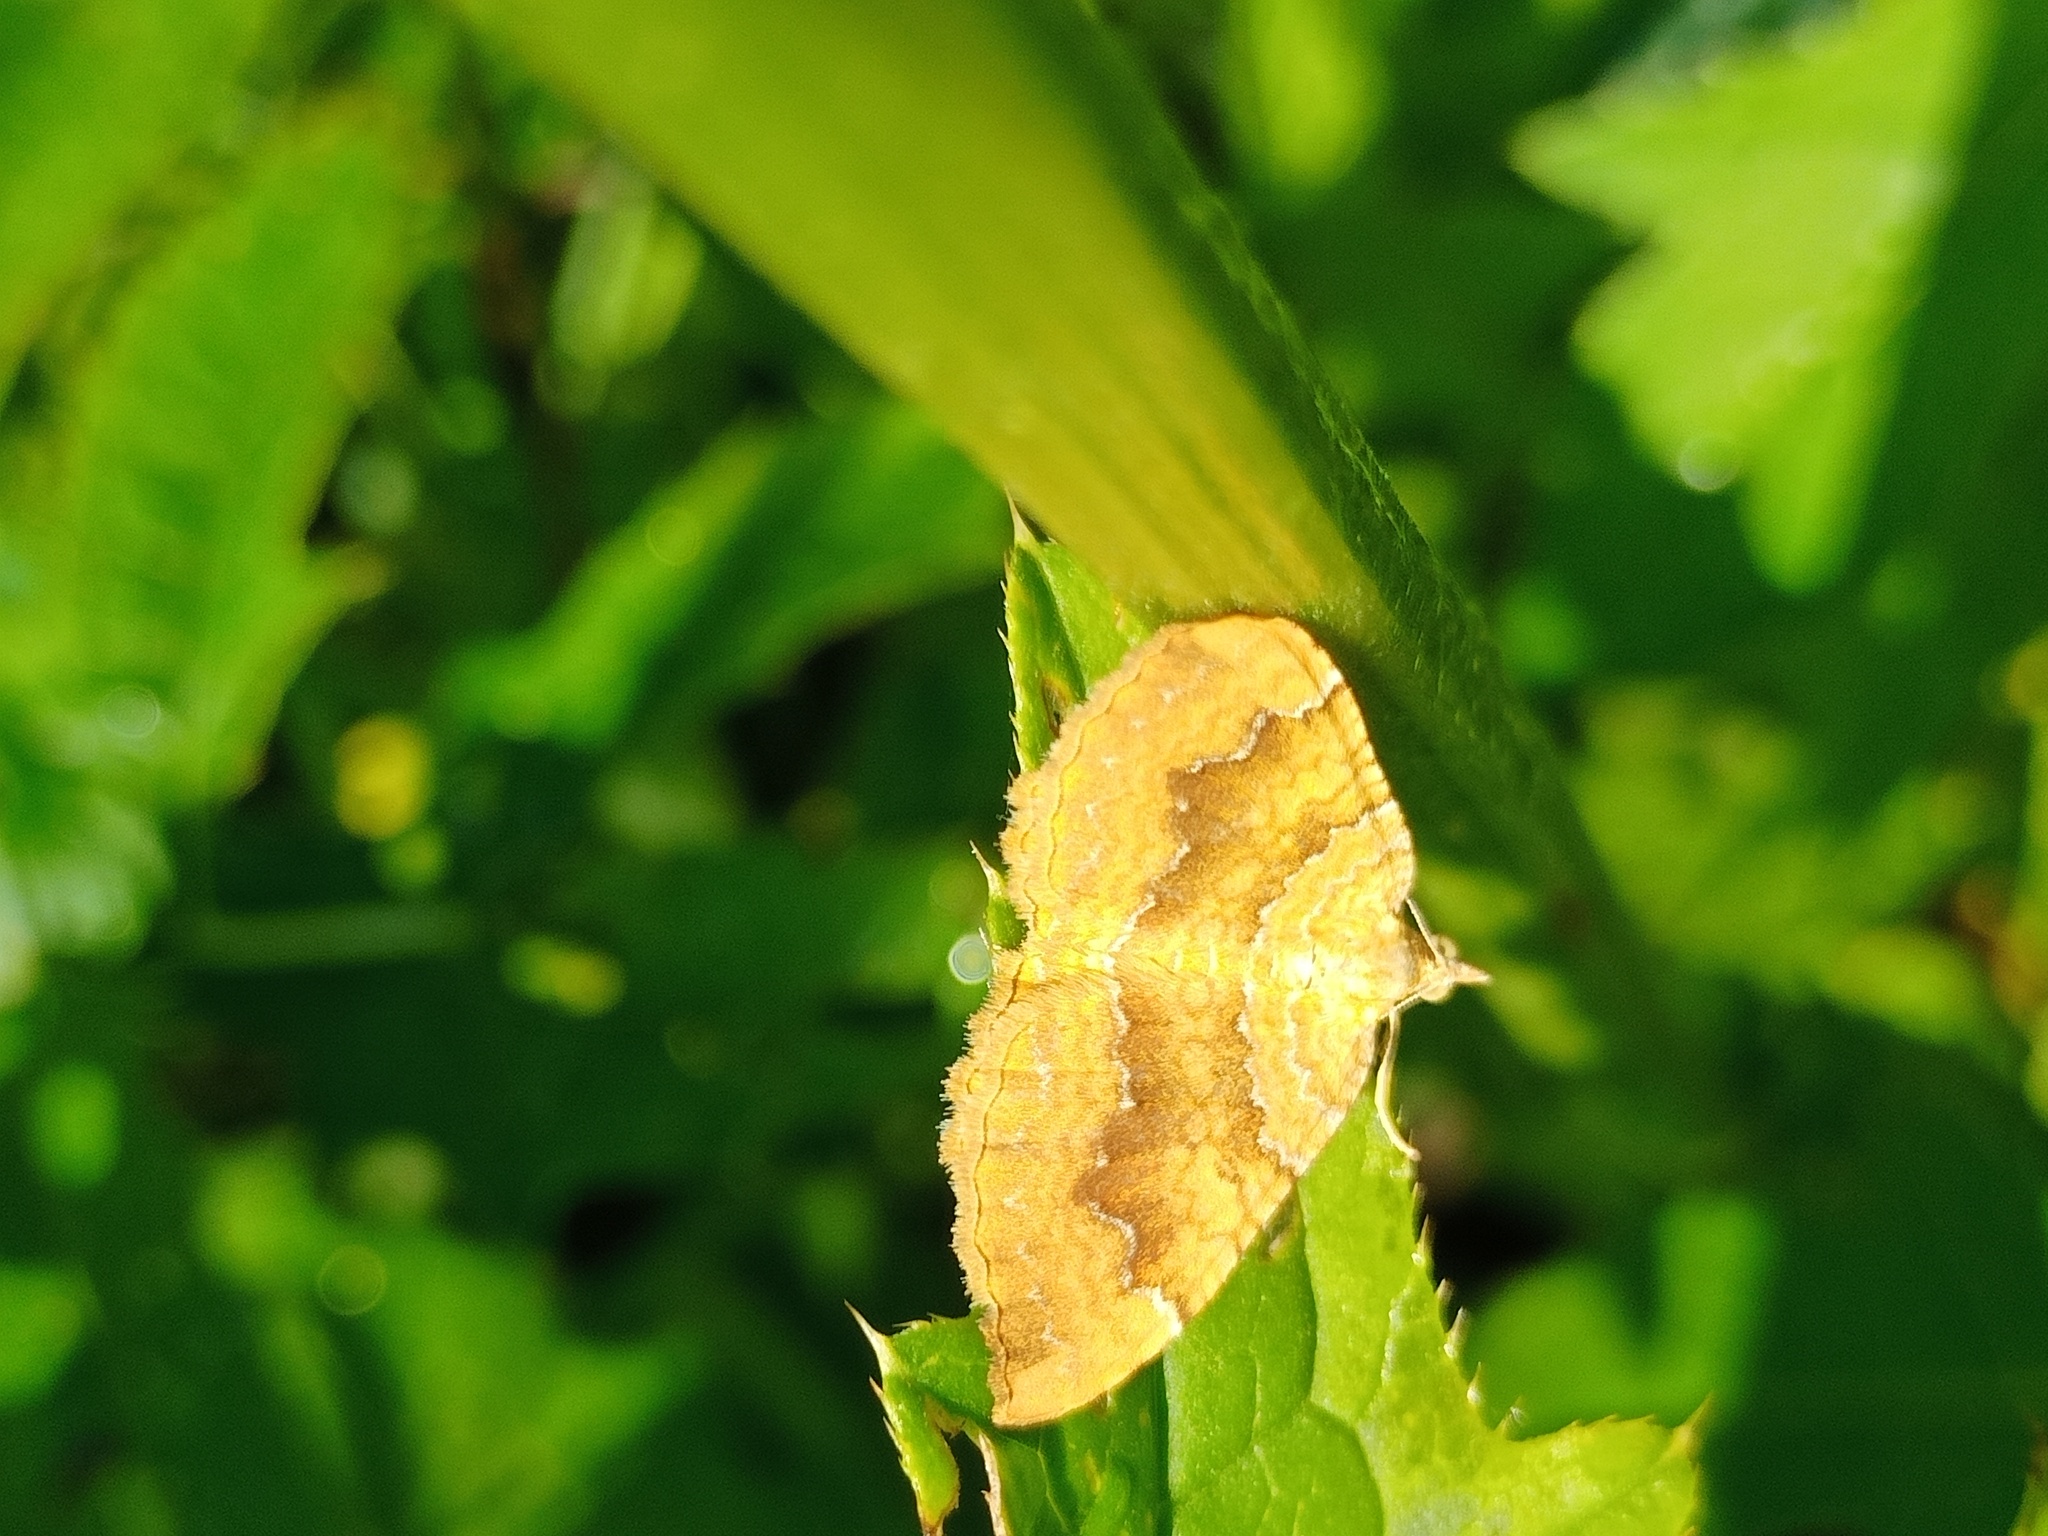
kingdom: Animalia
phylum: Arthropoda
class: Insecta
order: Lepidoptera
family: Geometridae
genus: Camptogramma
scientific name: Camptogramma bilineata
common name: Yellow shell
